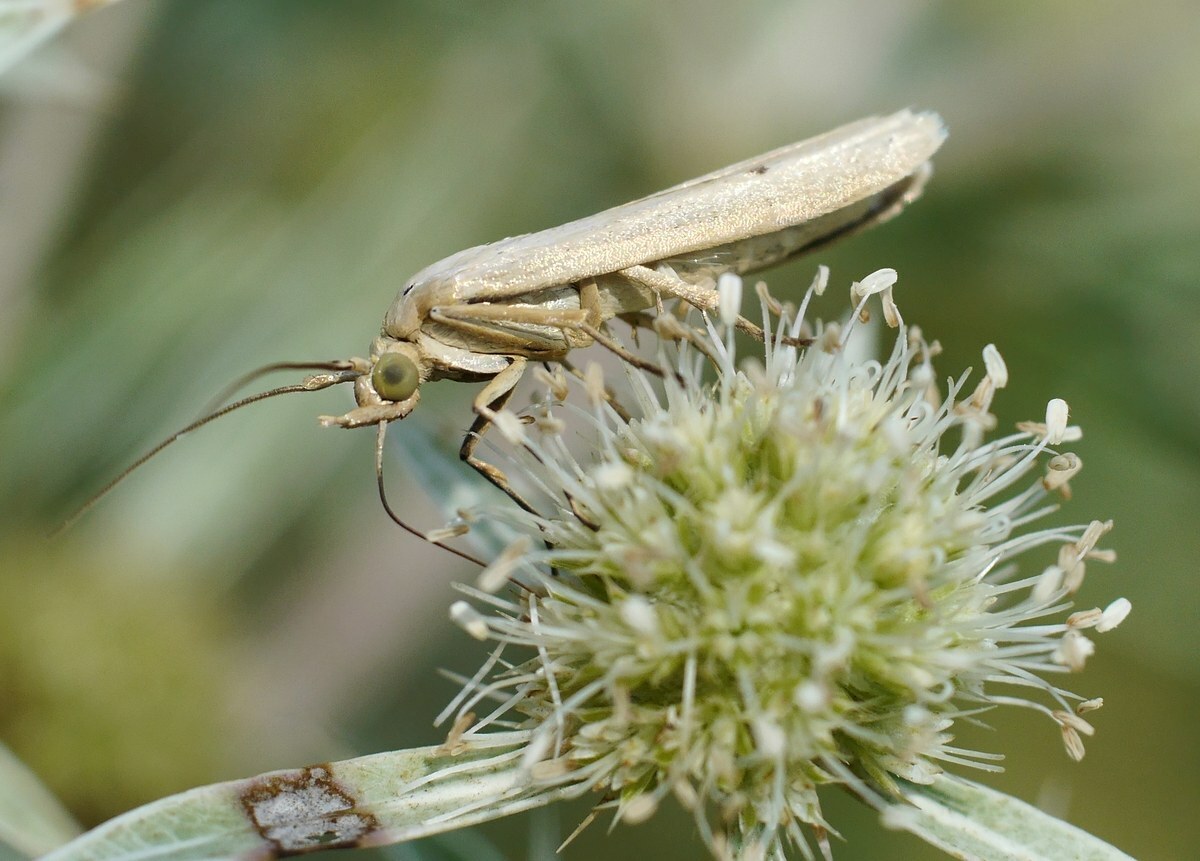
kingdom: Animalia
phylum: Arthropoda
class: Insecta
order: Lepidoptera
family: Pyralidae
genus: Selagia
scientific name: Selagia argyrella
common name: Silvery knot-horn
